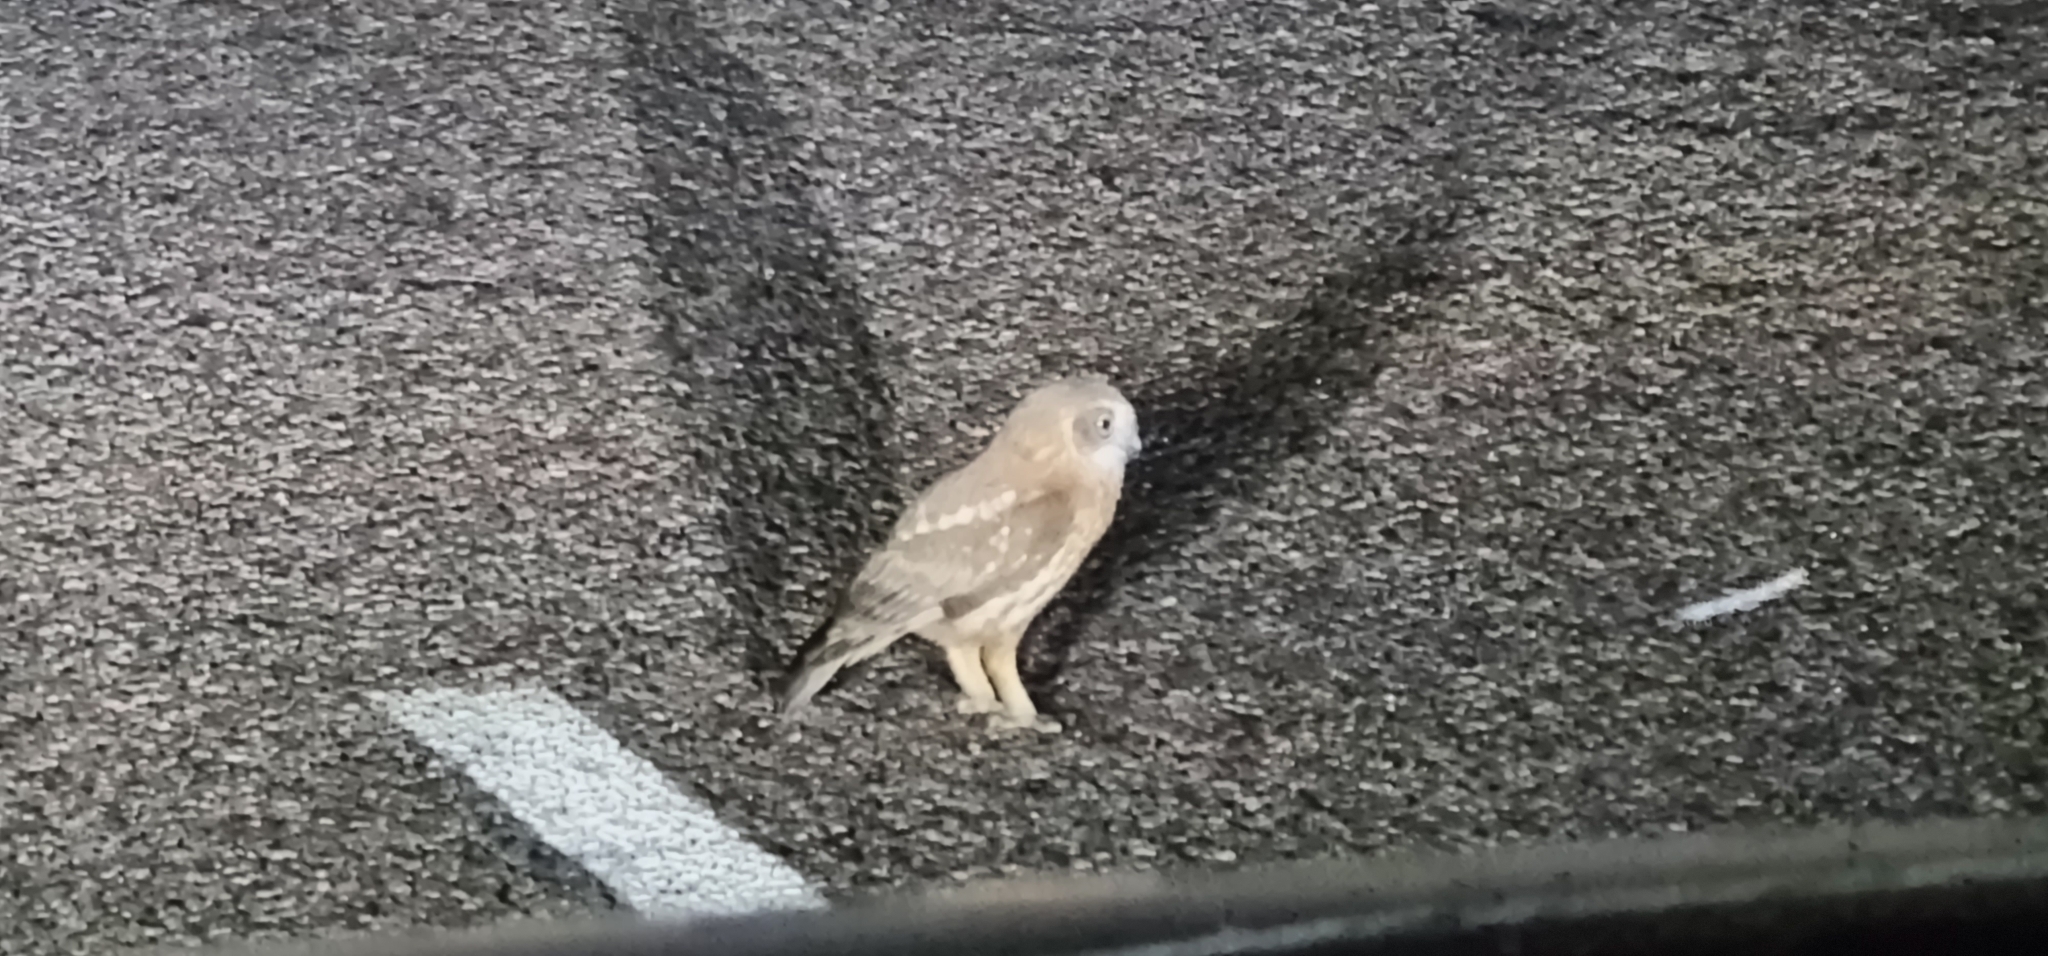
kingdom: Animalia
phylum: Chordata
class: Aves
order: Strigiformes
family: Strigidae
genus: Ninox
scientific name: Ninox boobook
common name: Southern boobook
